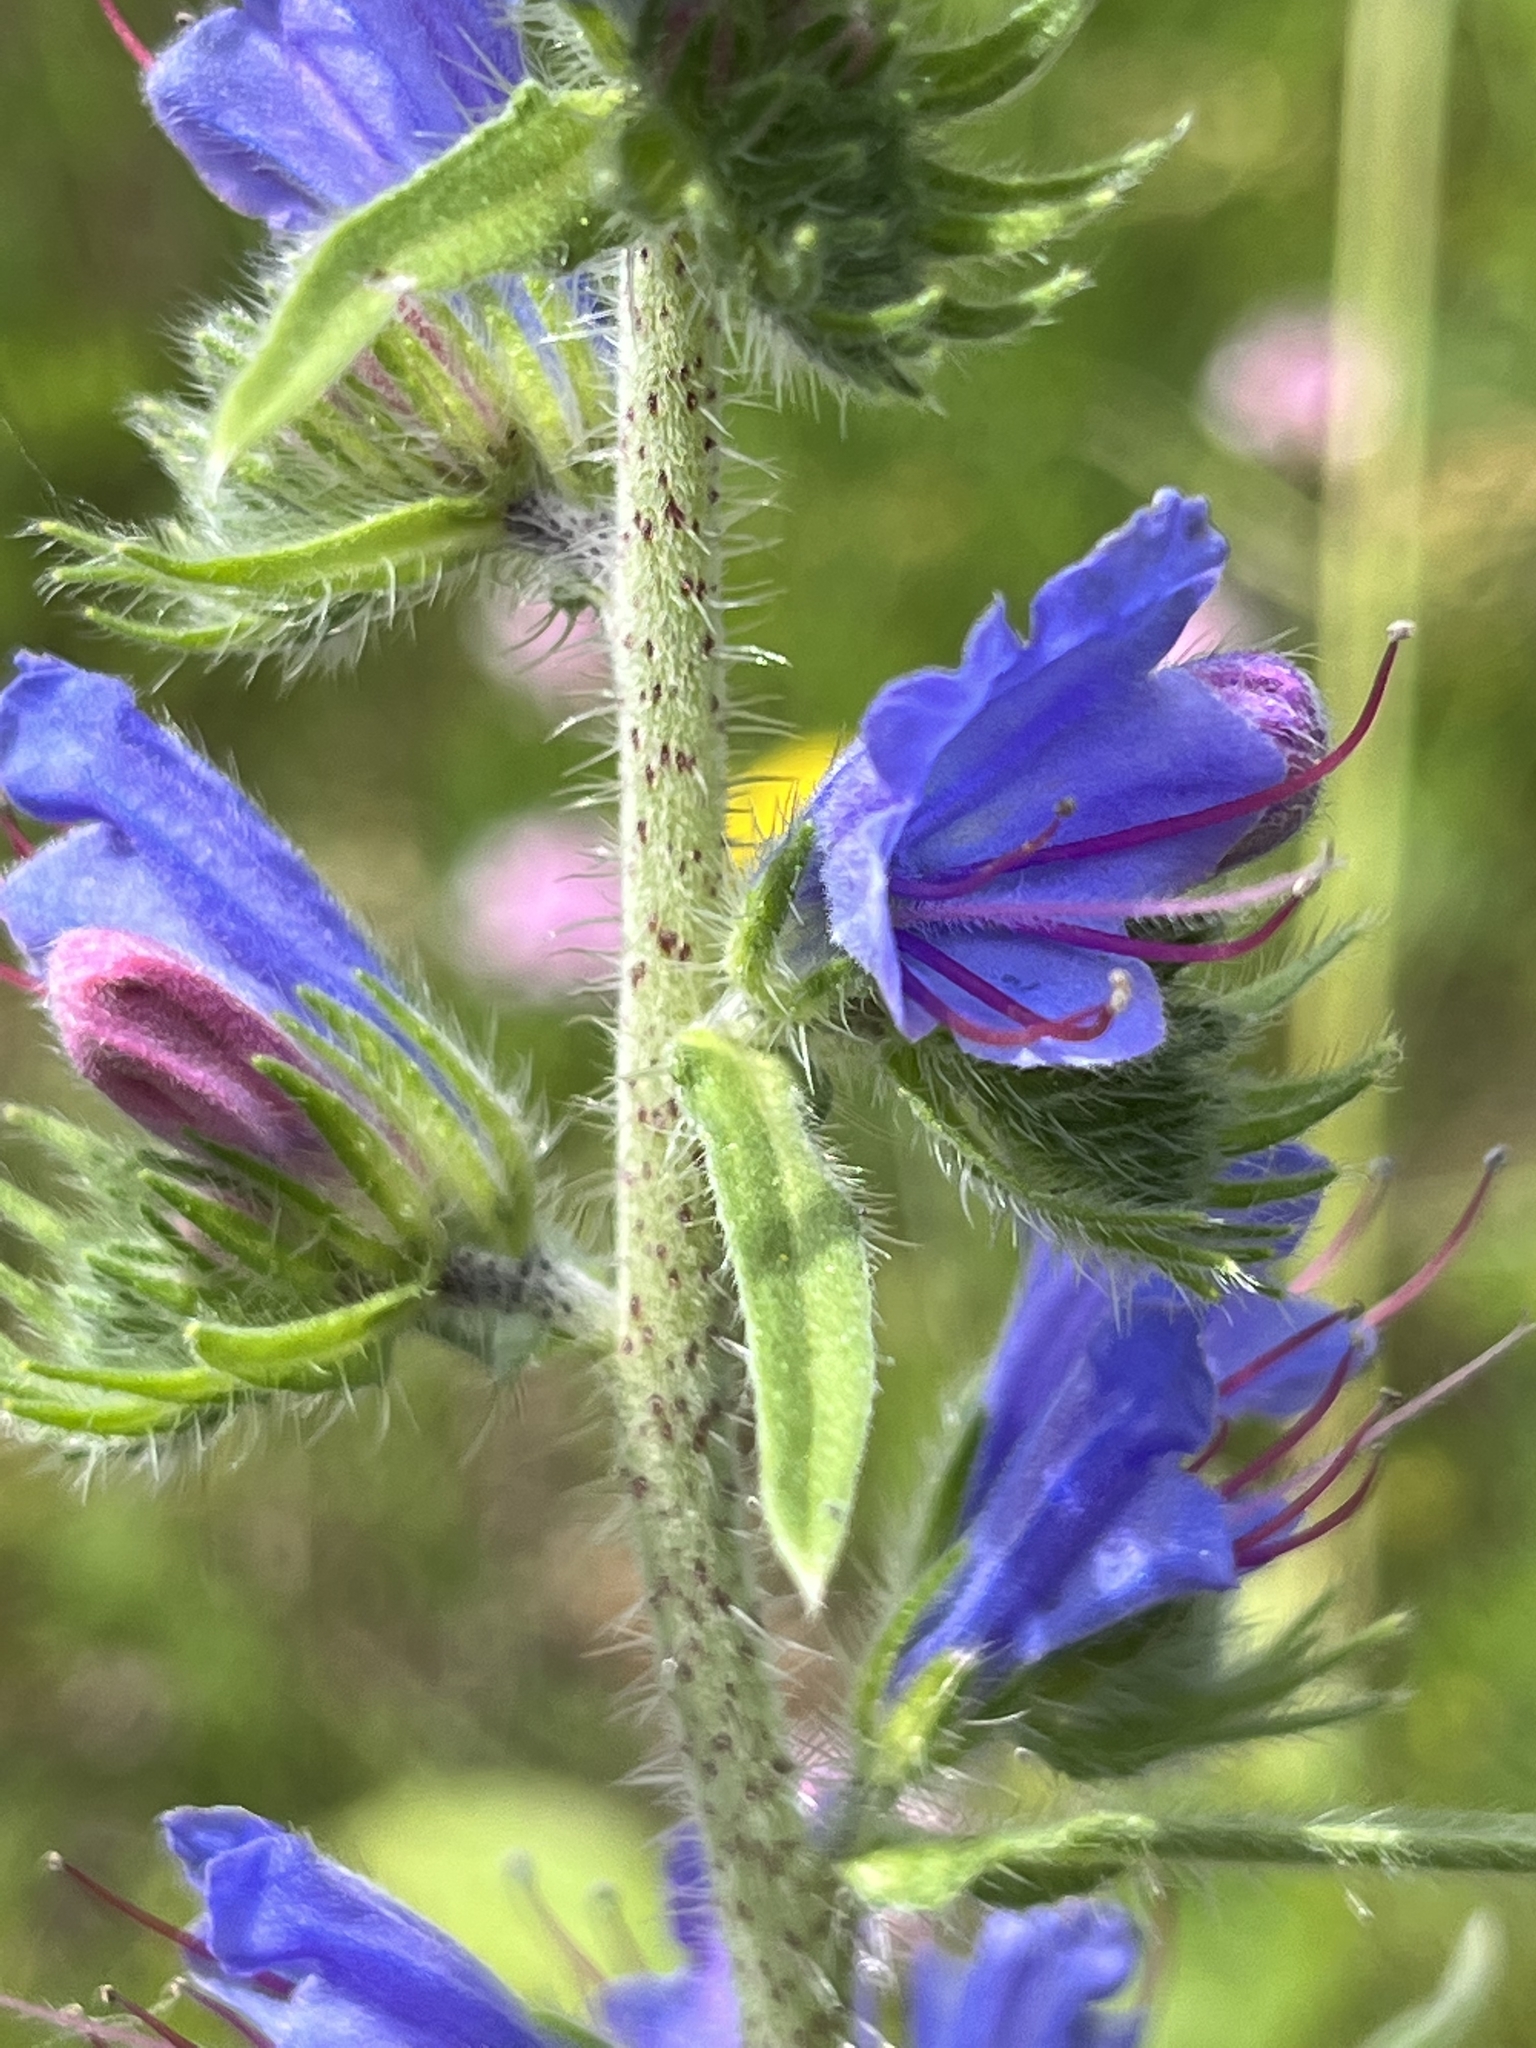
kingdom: Plantae
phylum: Tracheophyta
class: Magnoliopsida
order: Boraginales
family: Boraginaceae
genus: Echium
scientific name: Echium vulgare
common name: Common viper's bugloss
